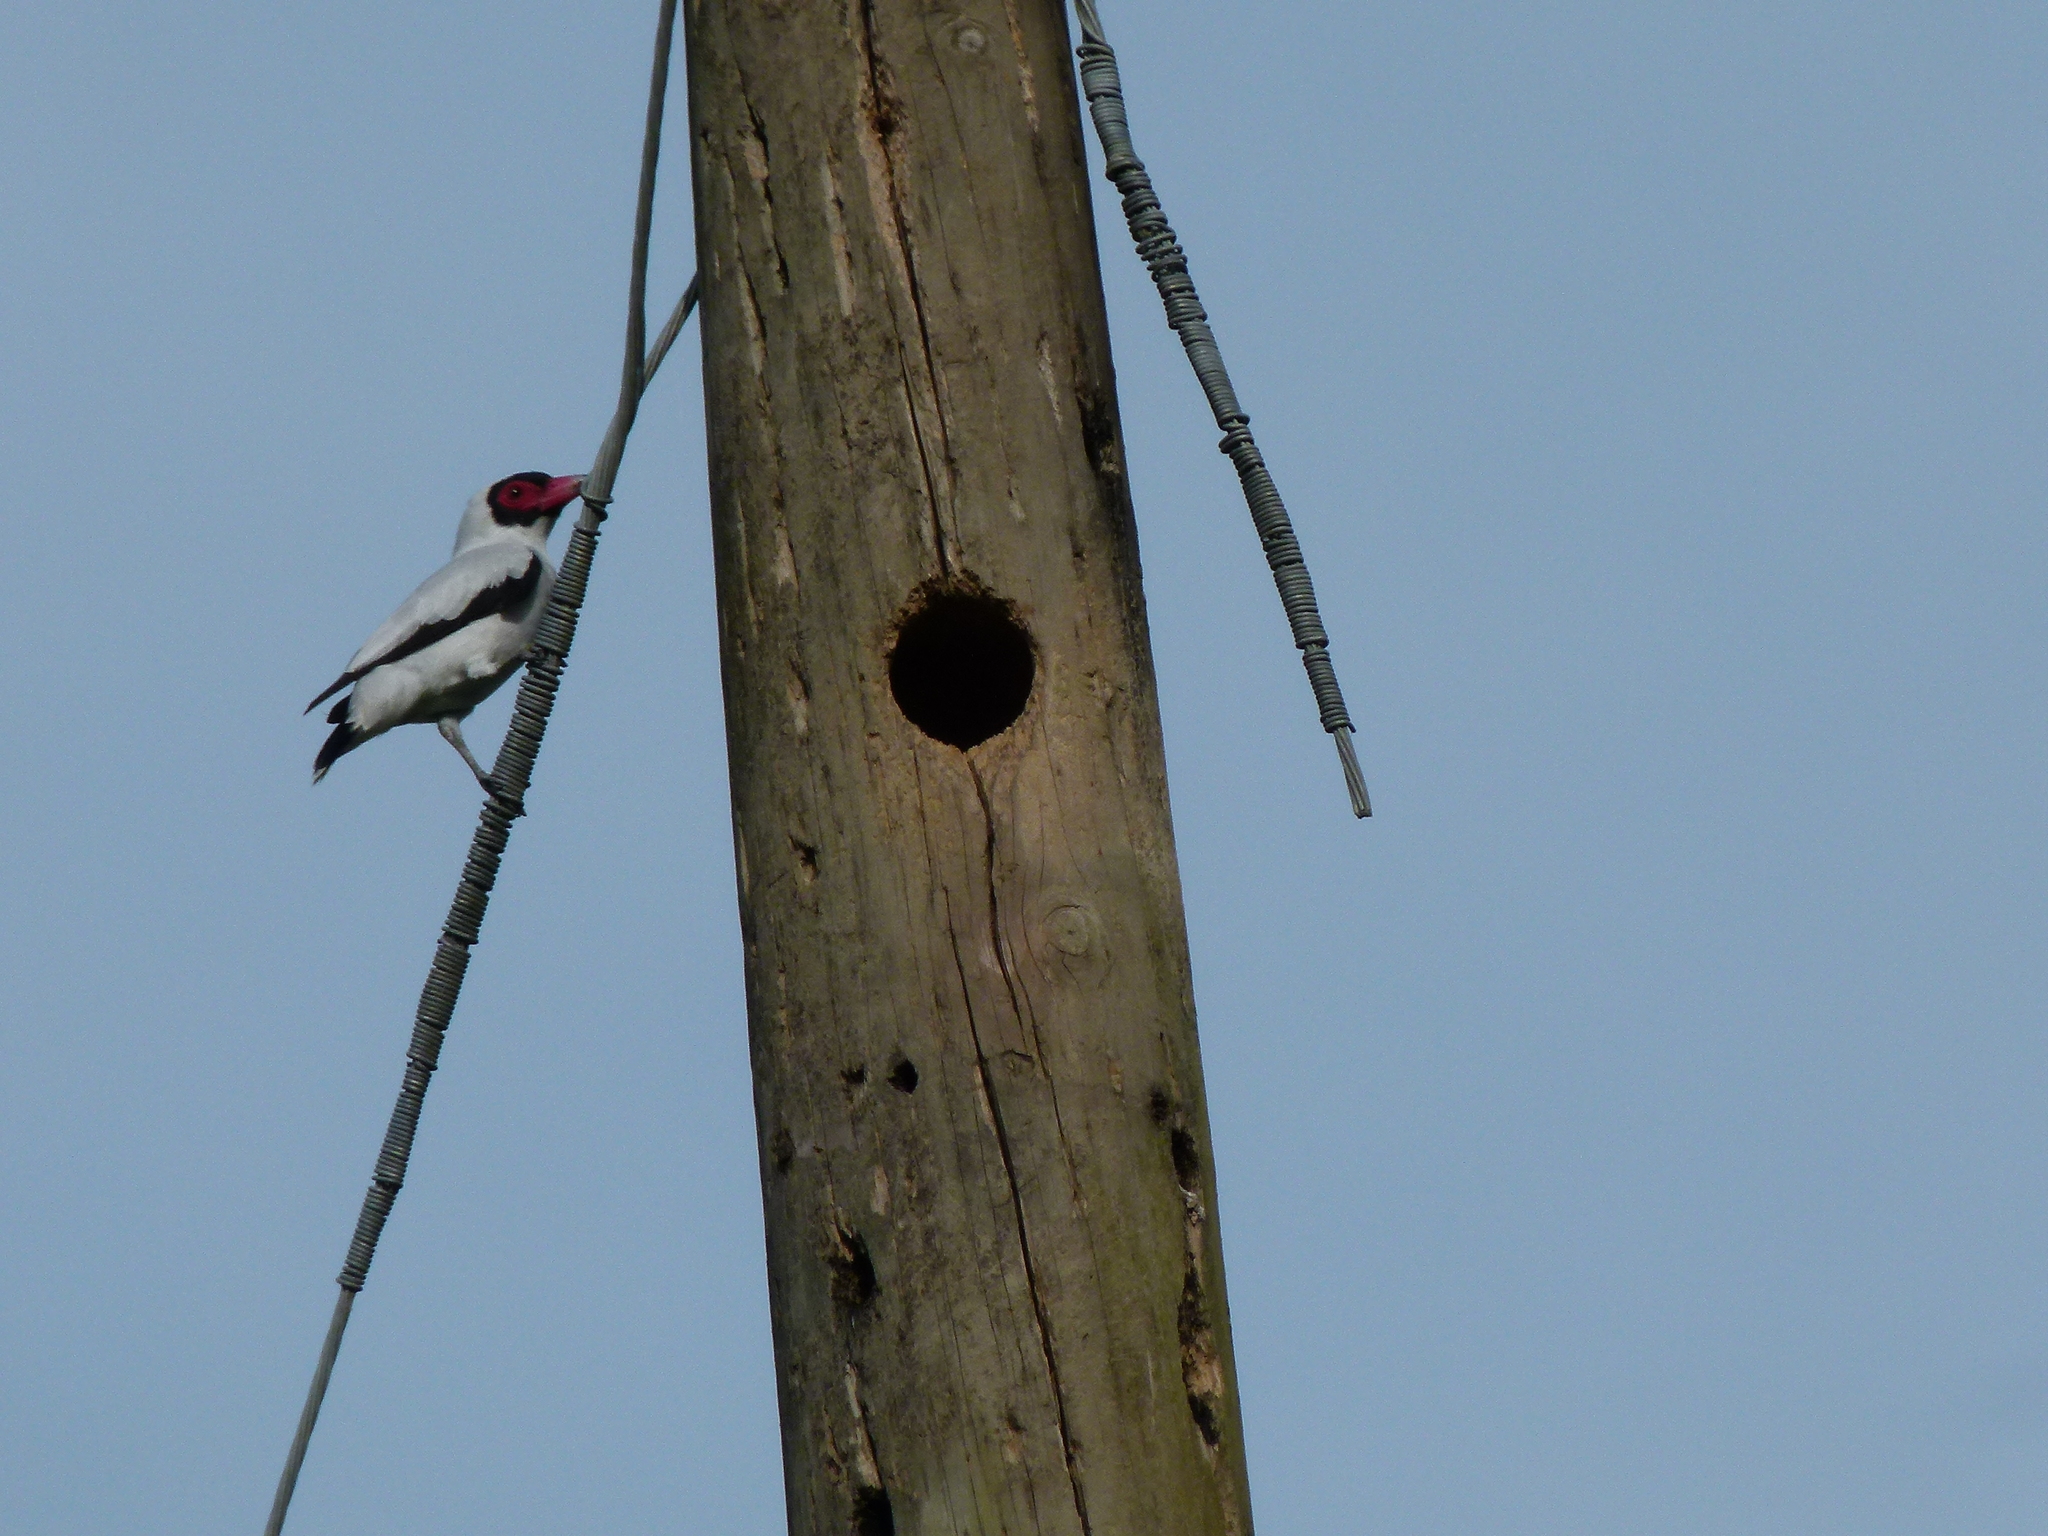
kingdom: Animalia
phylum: Chordata
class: Aves
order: Passeriformes
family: Cotingidae
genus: Tityra
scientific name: Tityra semifasciata
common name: Masked tityra
